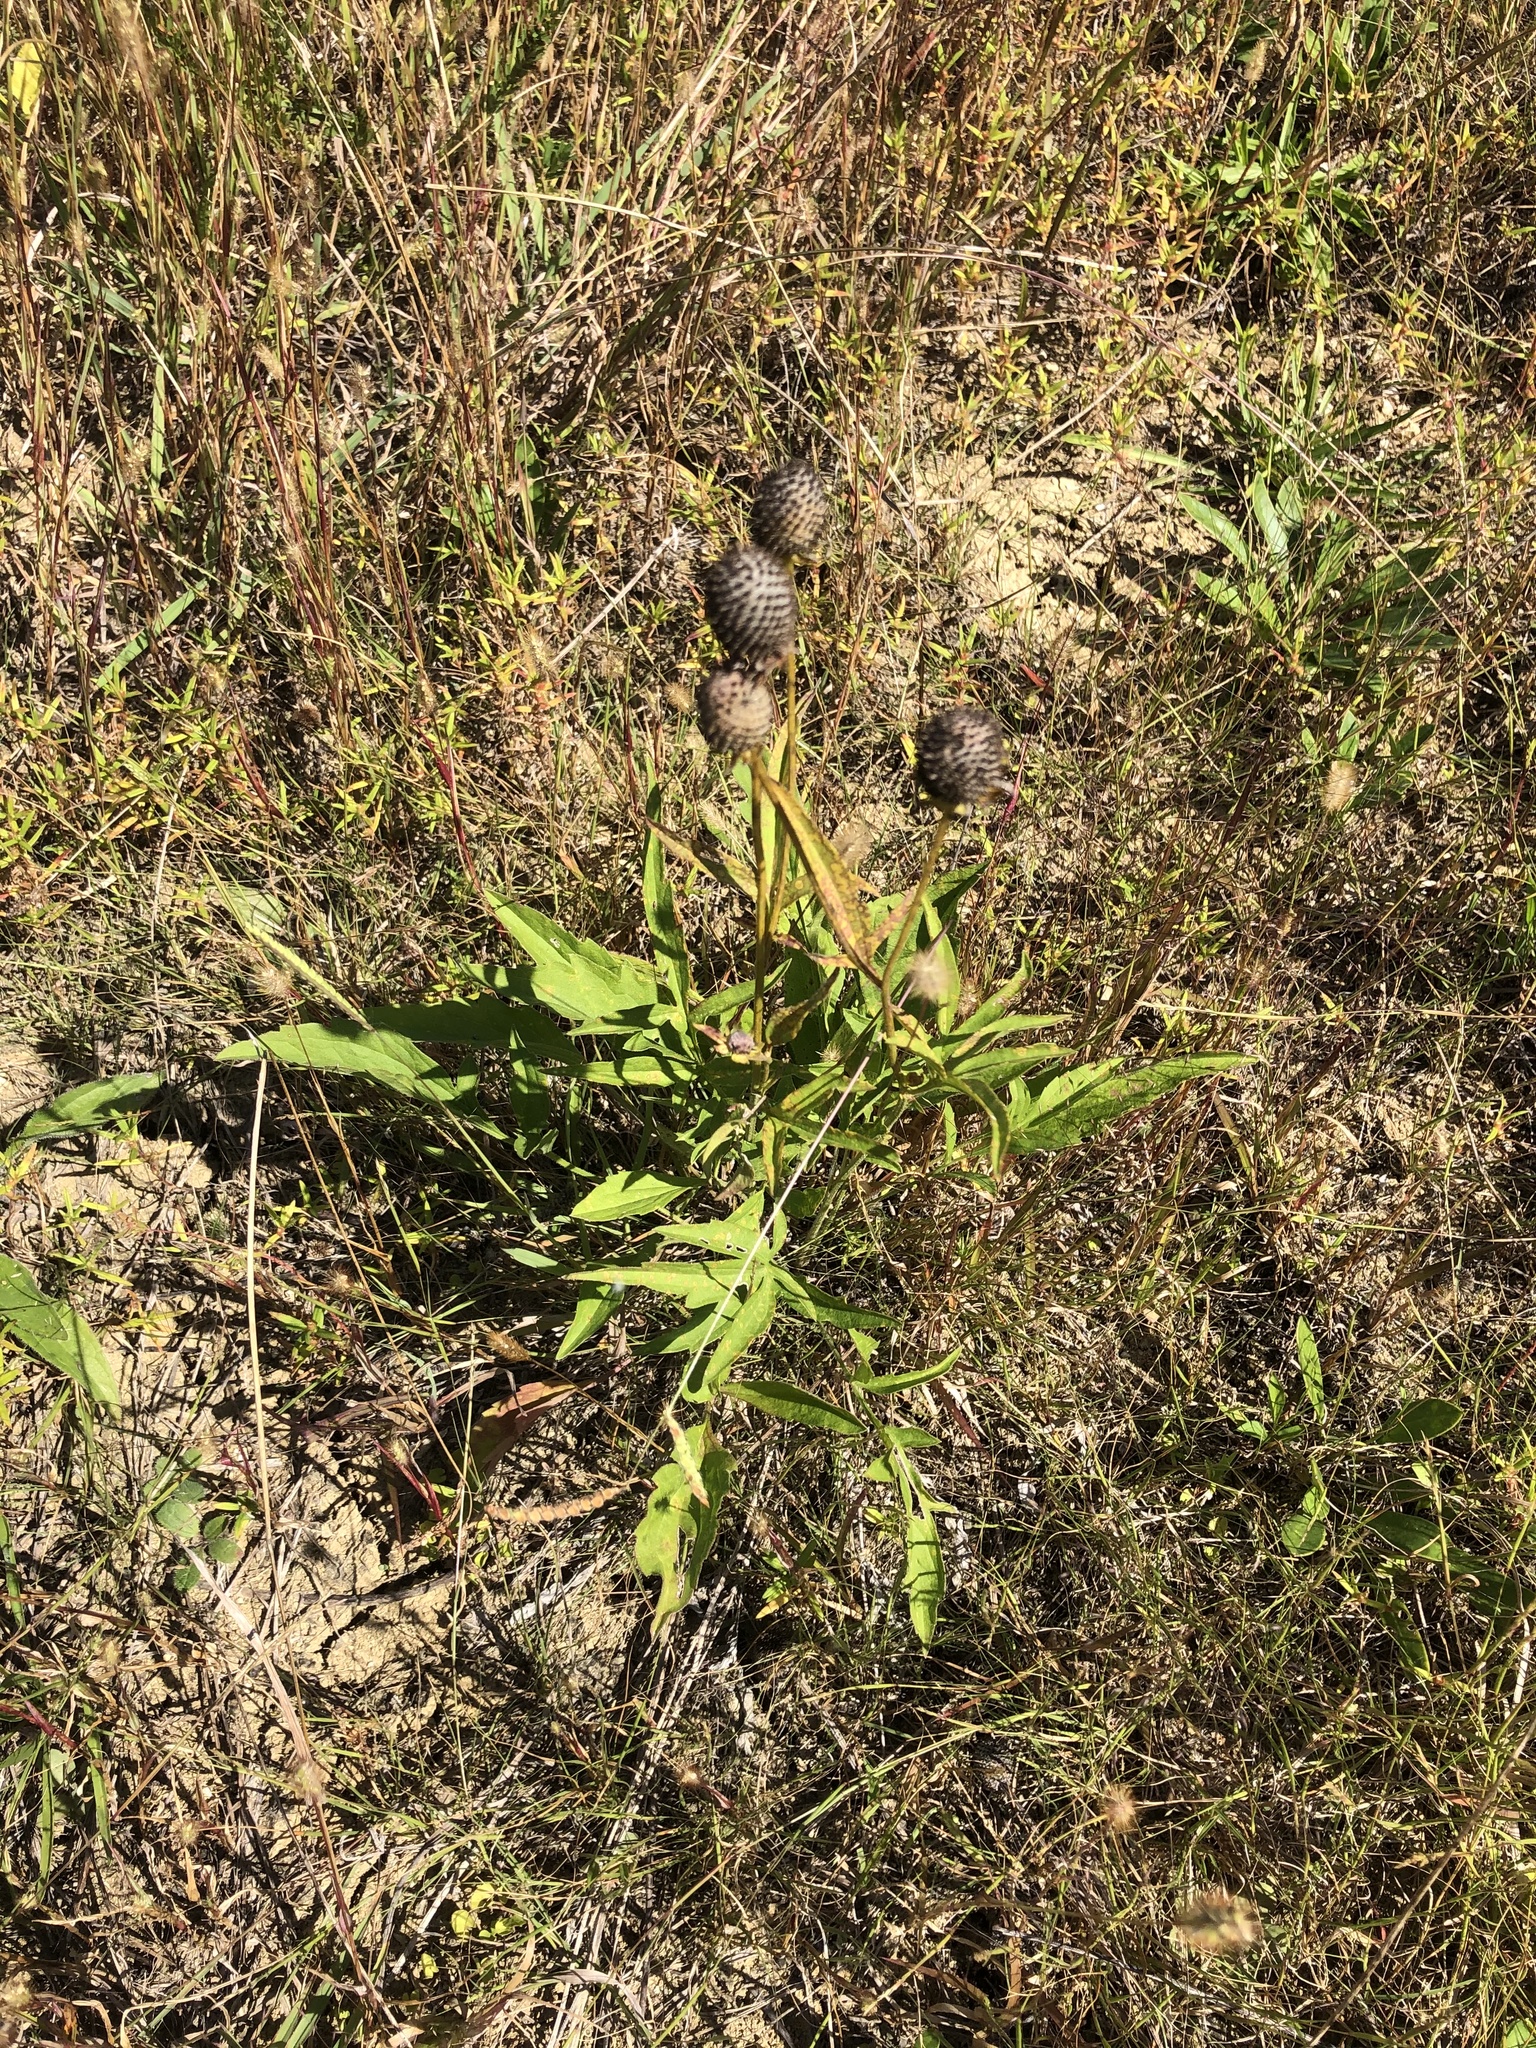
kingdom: Plantae
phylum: Tracheophyta
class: Magnoliopsida
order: Asterales
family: Asteraceae
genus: Ratibida
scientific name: Ratibida pinnata
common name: Drooping prairie-coneflower
